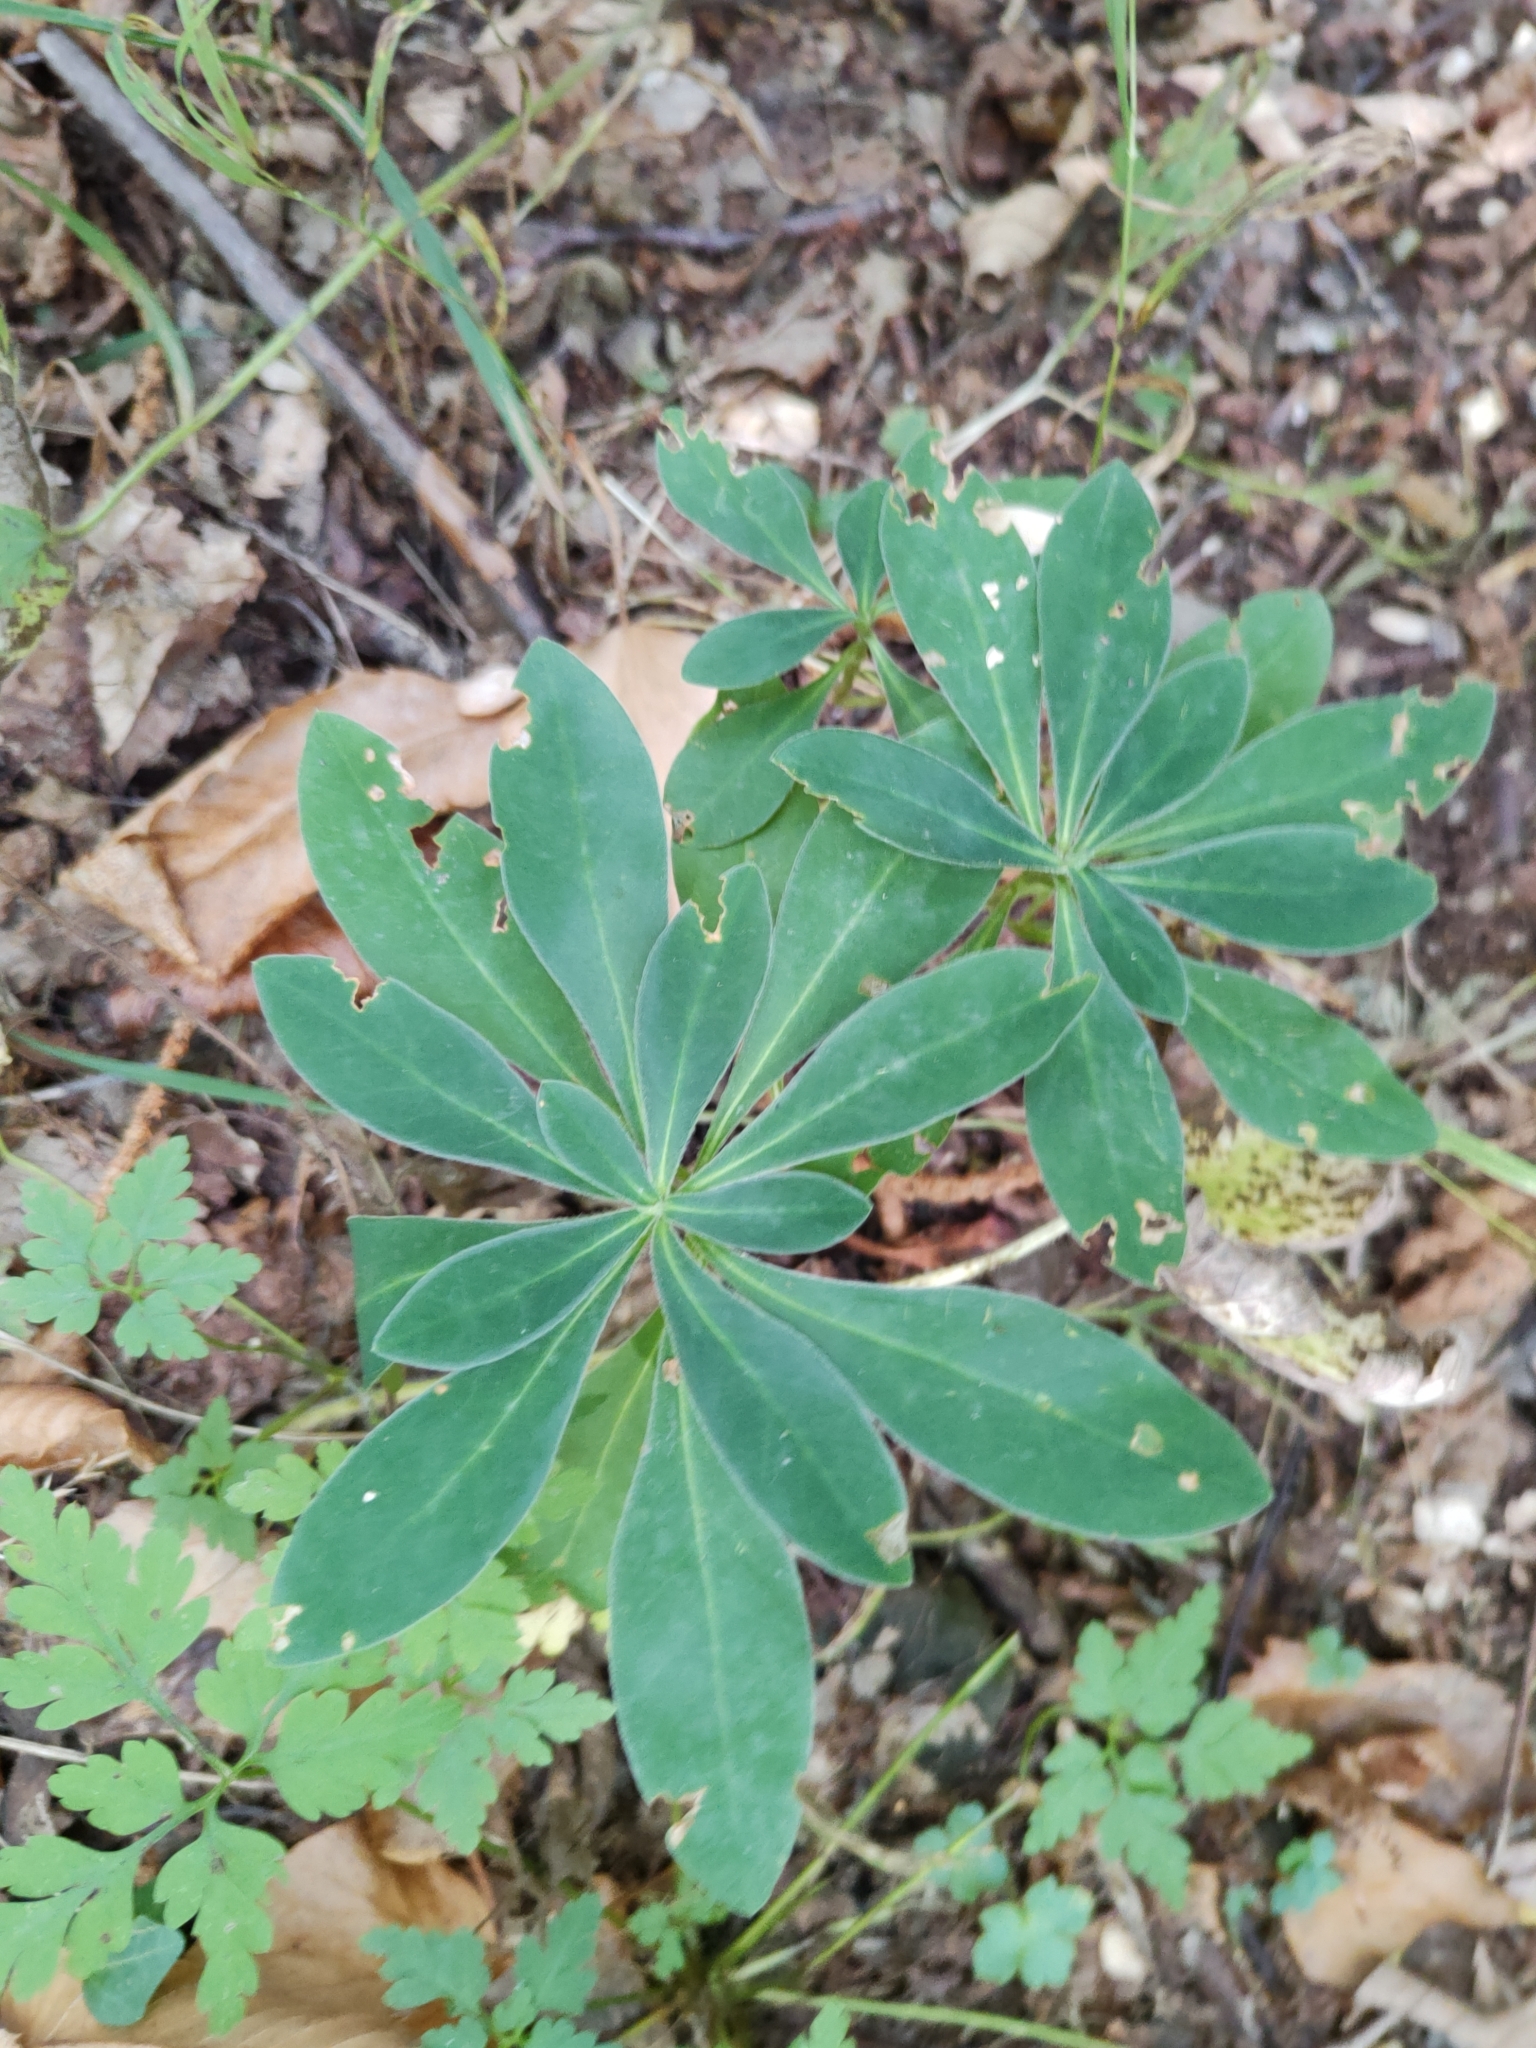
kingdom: Plantae
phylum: Tracheophyta
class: Magnoliopsida
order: Malvales
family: Thymelaeaceae
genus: Daphne
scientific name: Daphne mezereum
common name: Mezereon
